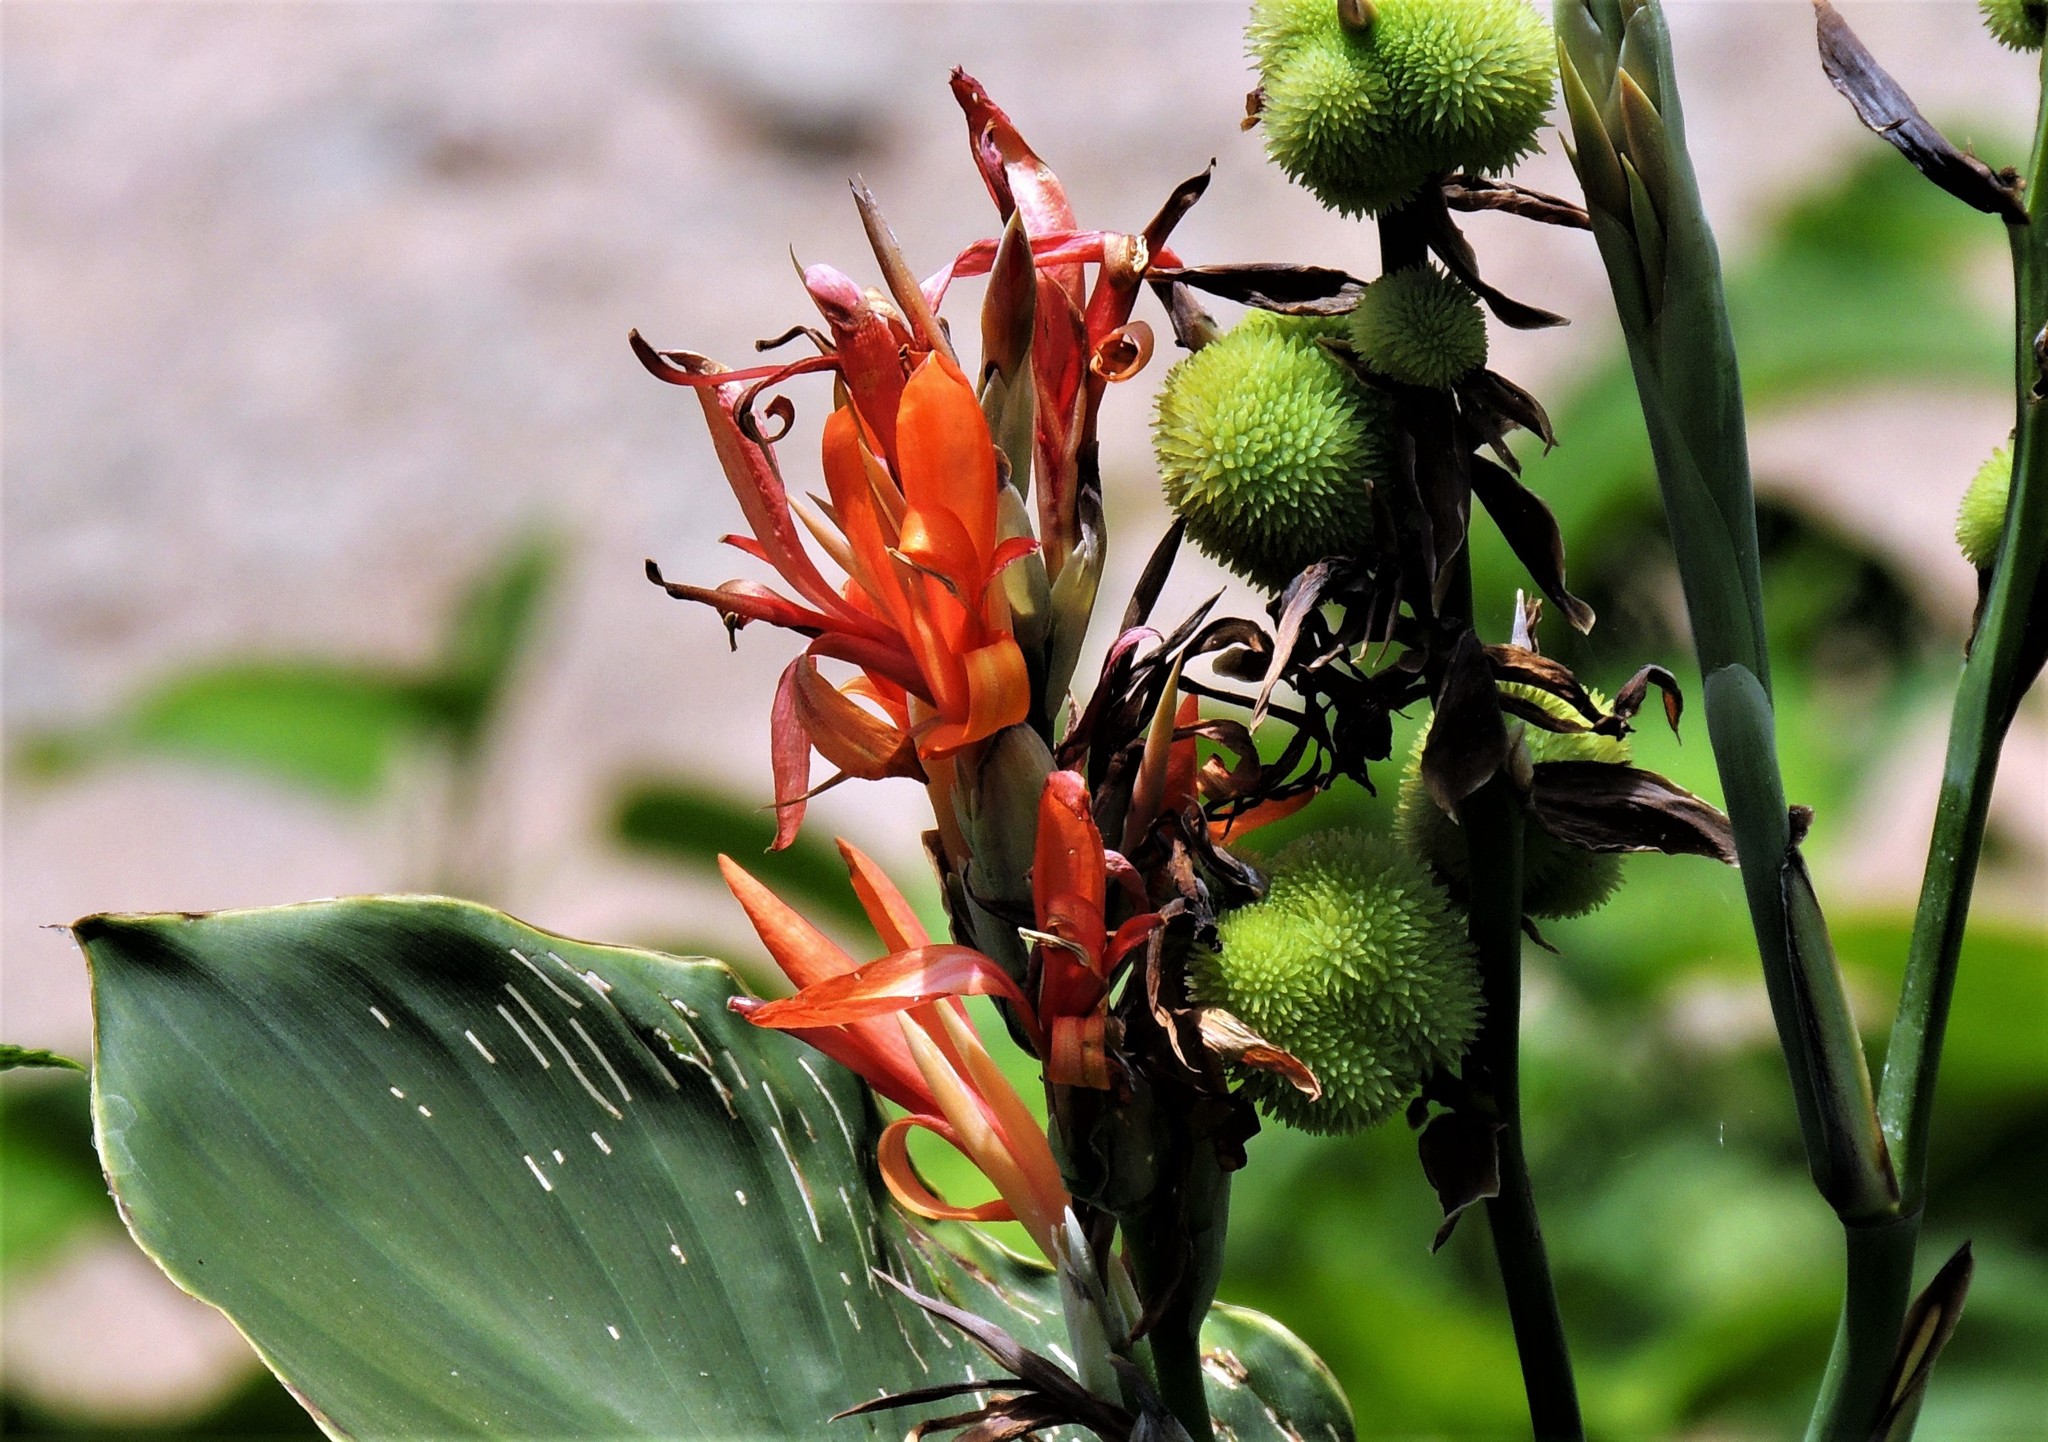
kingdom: Plantae
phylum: Tracheophyta
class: Liliopsida
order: Zingiberales
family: Cannaceae
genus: Canna
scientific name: Canna indica
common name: Indian shot
